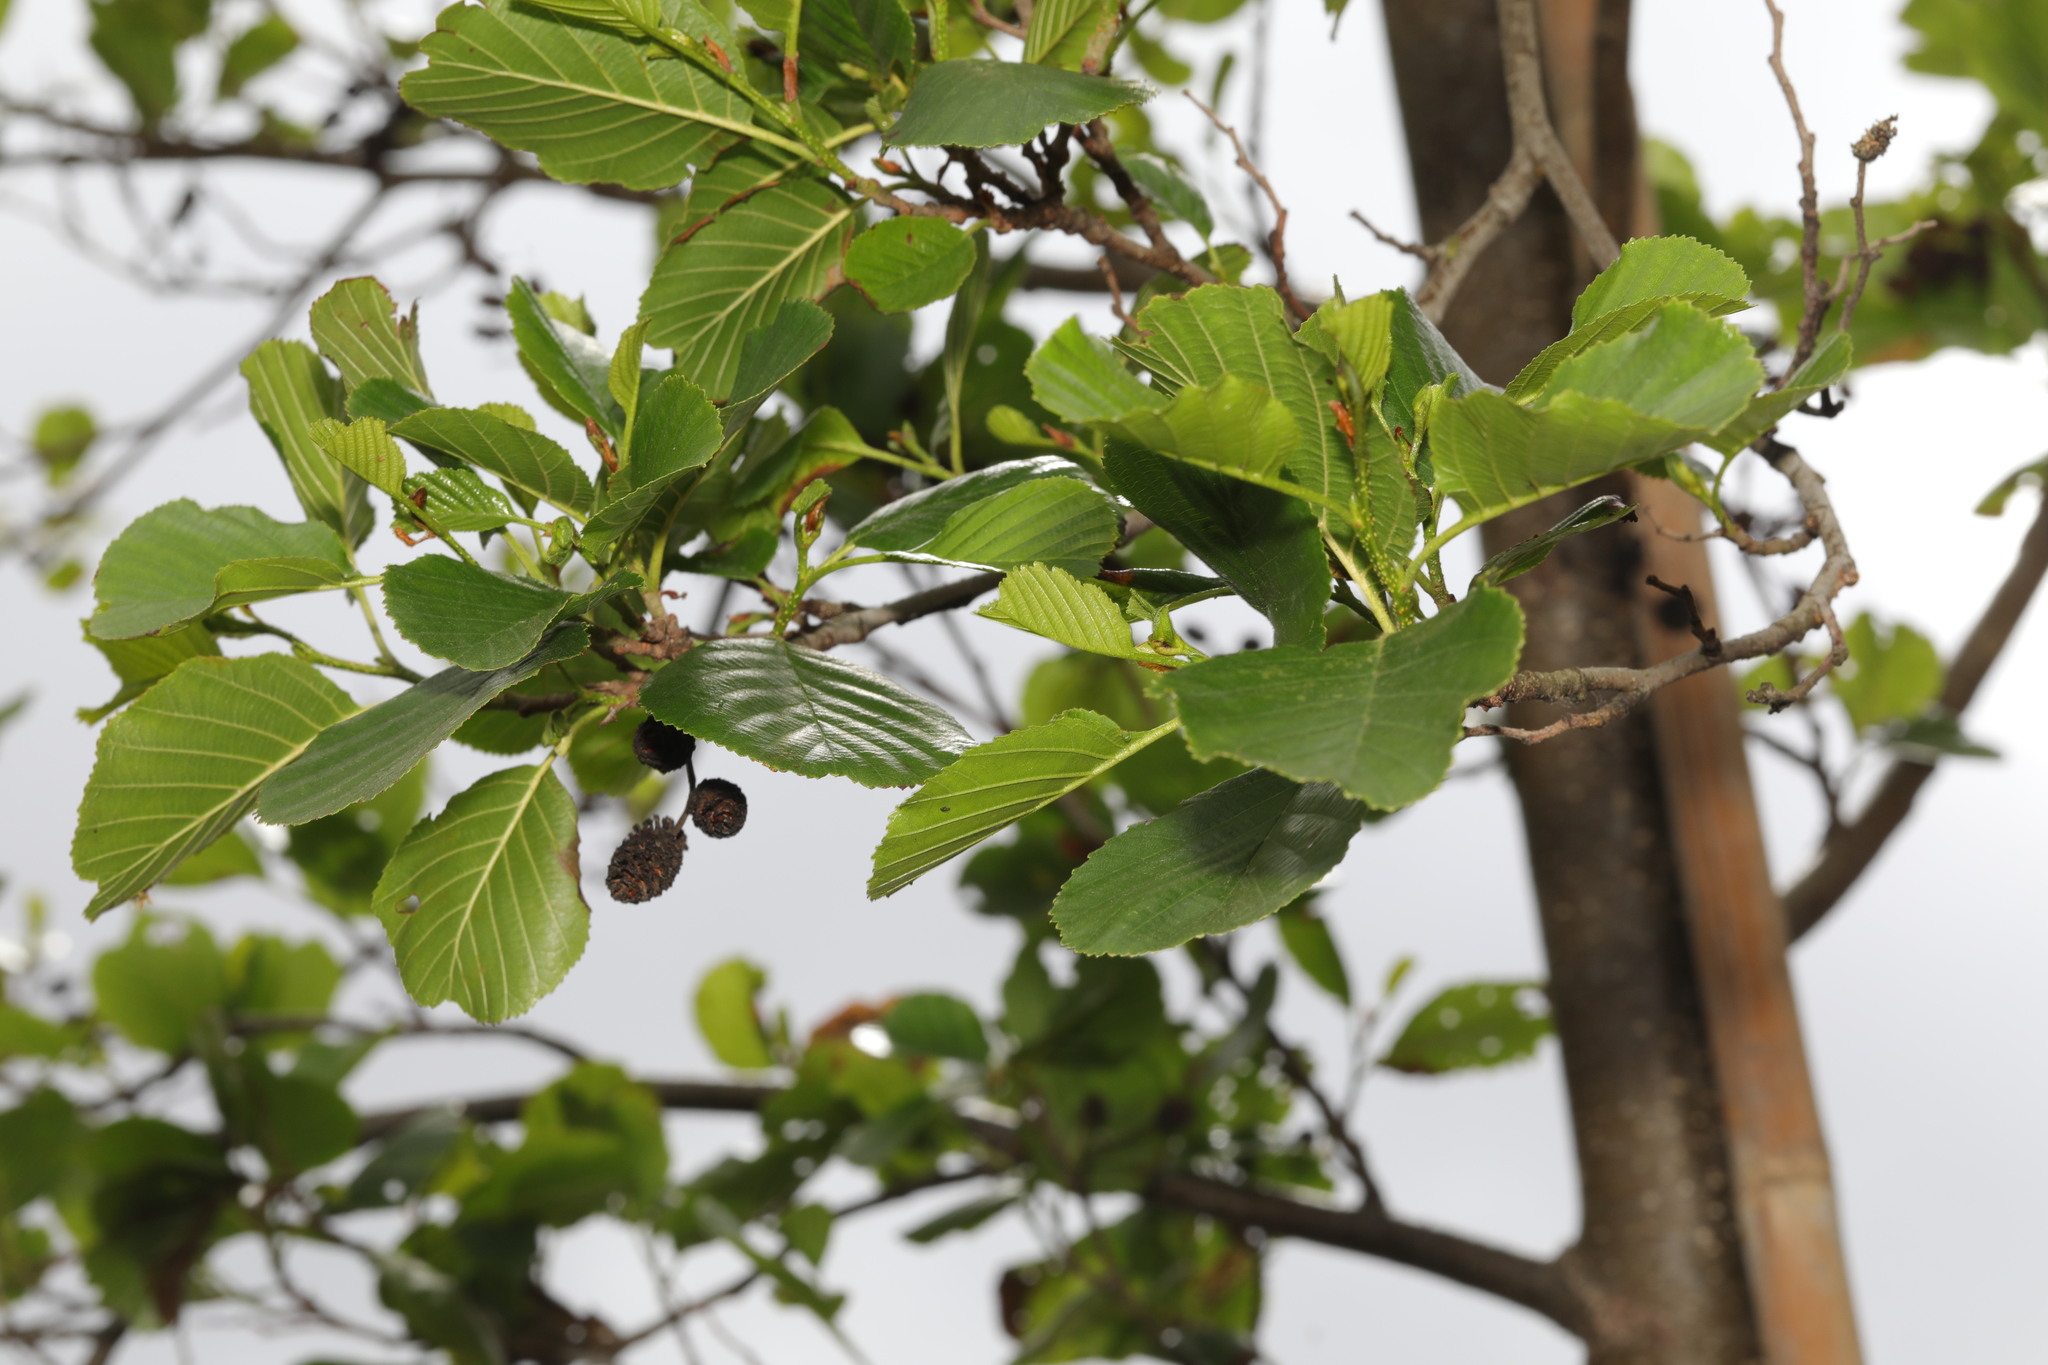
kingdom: Plantae
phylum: Tracheophyta
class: Magnoliopsida
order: Fagales
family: Betulaceae
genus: Alnus
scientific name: Alnus glutinosa
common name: Black alder
